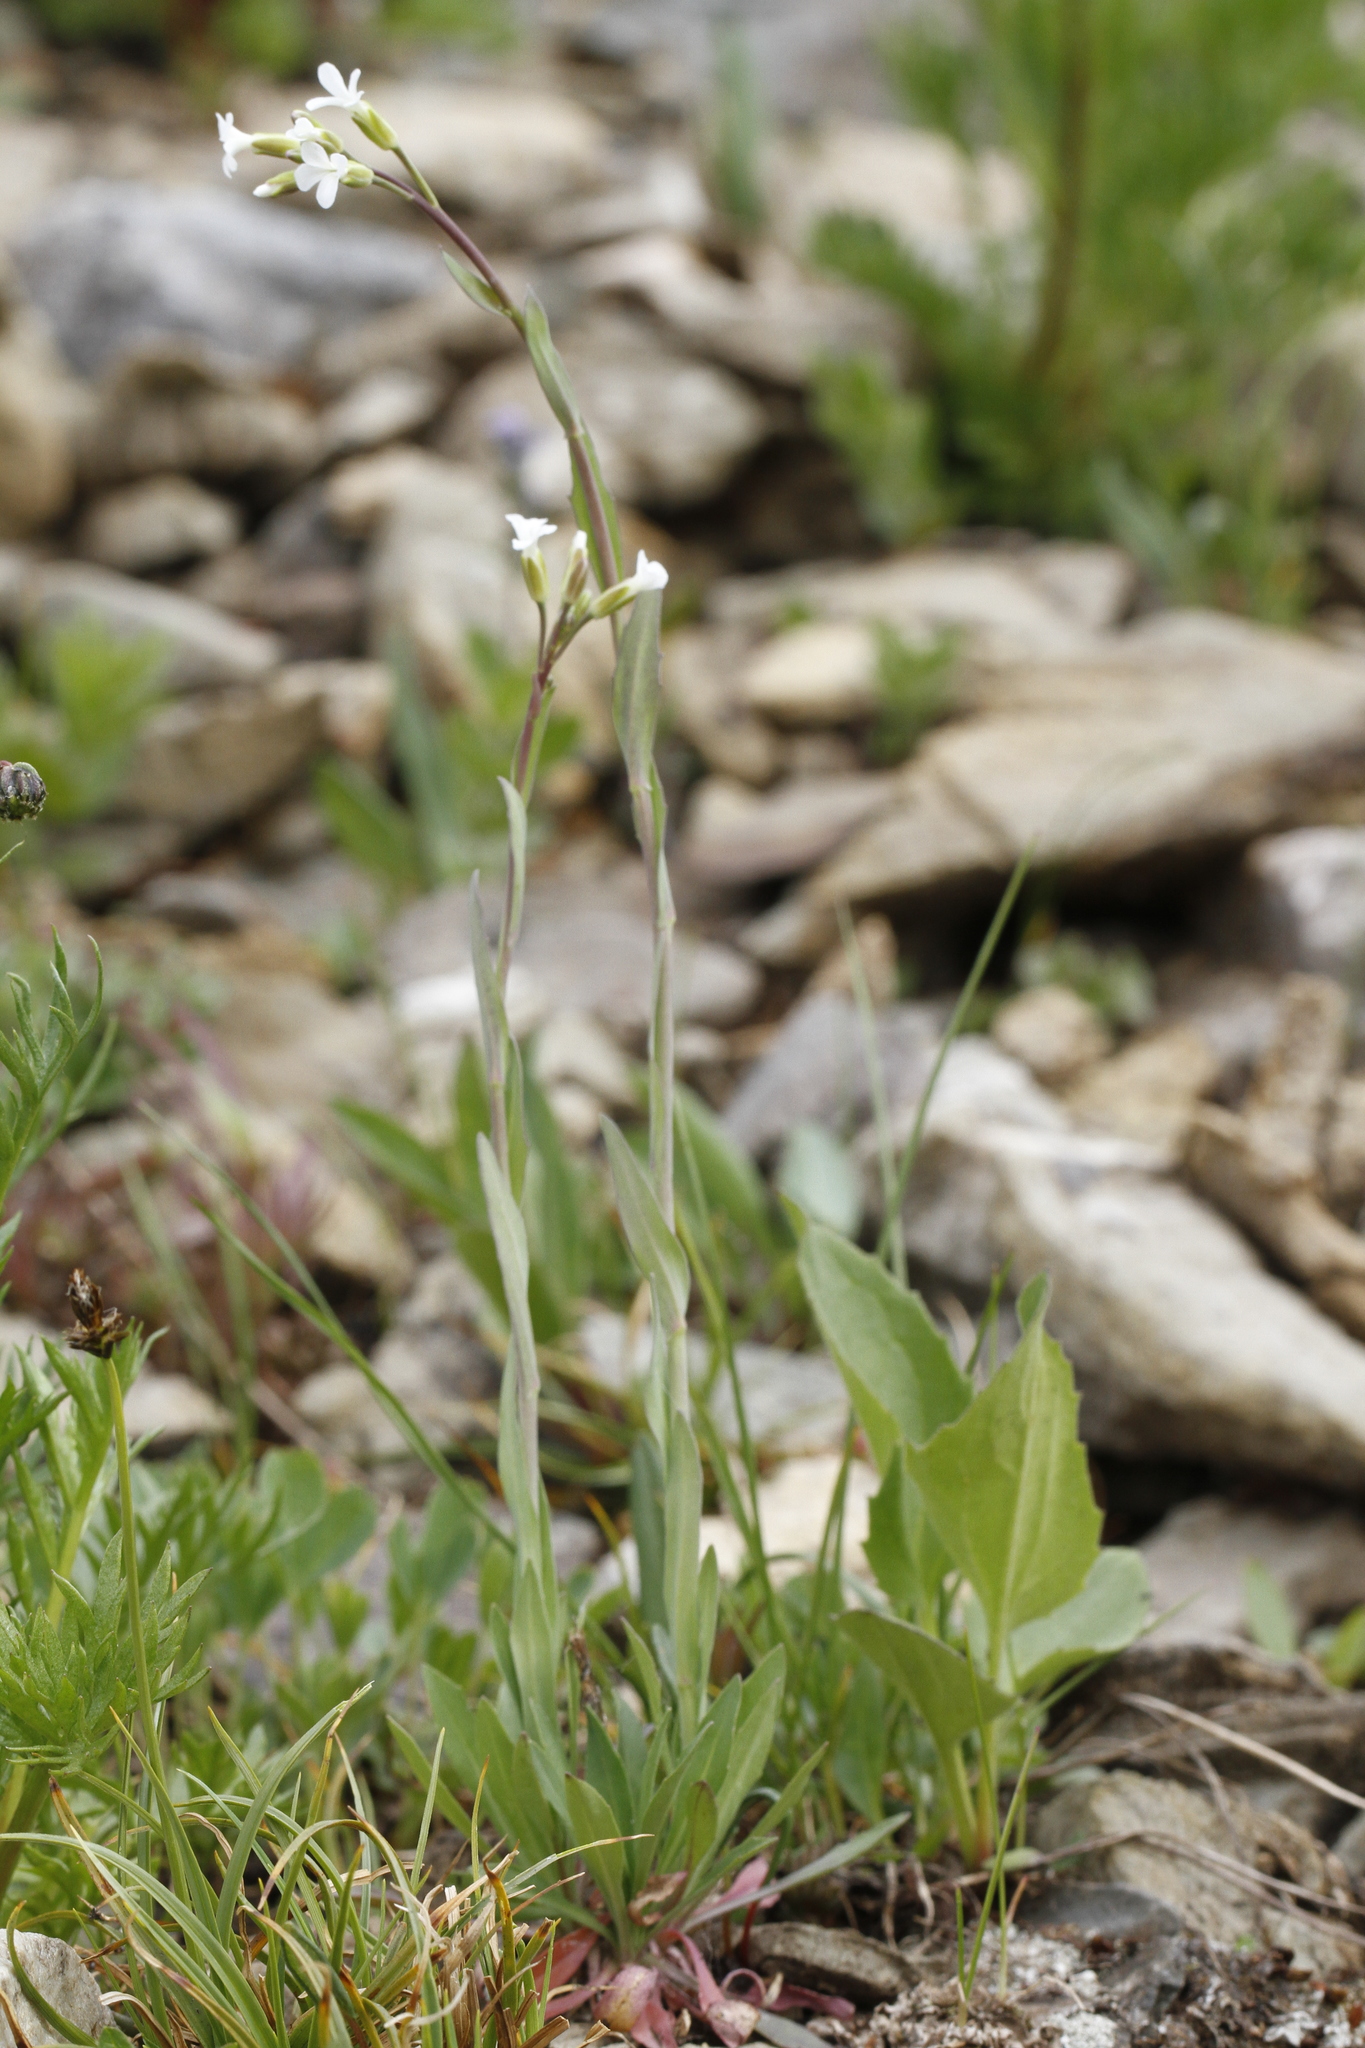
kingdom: Plantae
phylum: Tracheophyta
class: Magnoliopsida
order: Brassicales
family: Brassicaceae
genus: Boechera
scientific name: Boechera stricta
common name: Canadian rockcress
